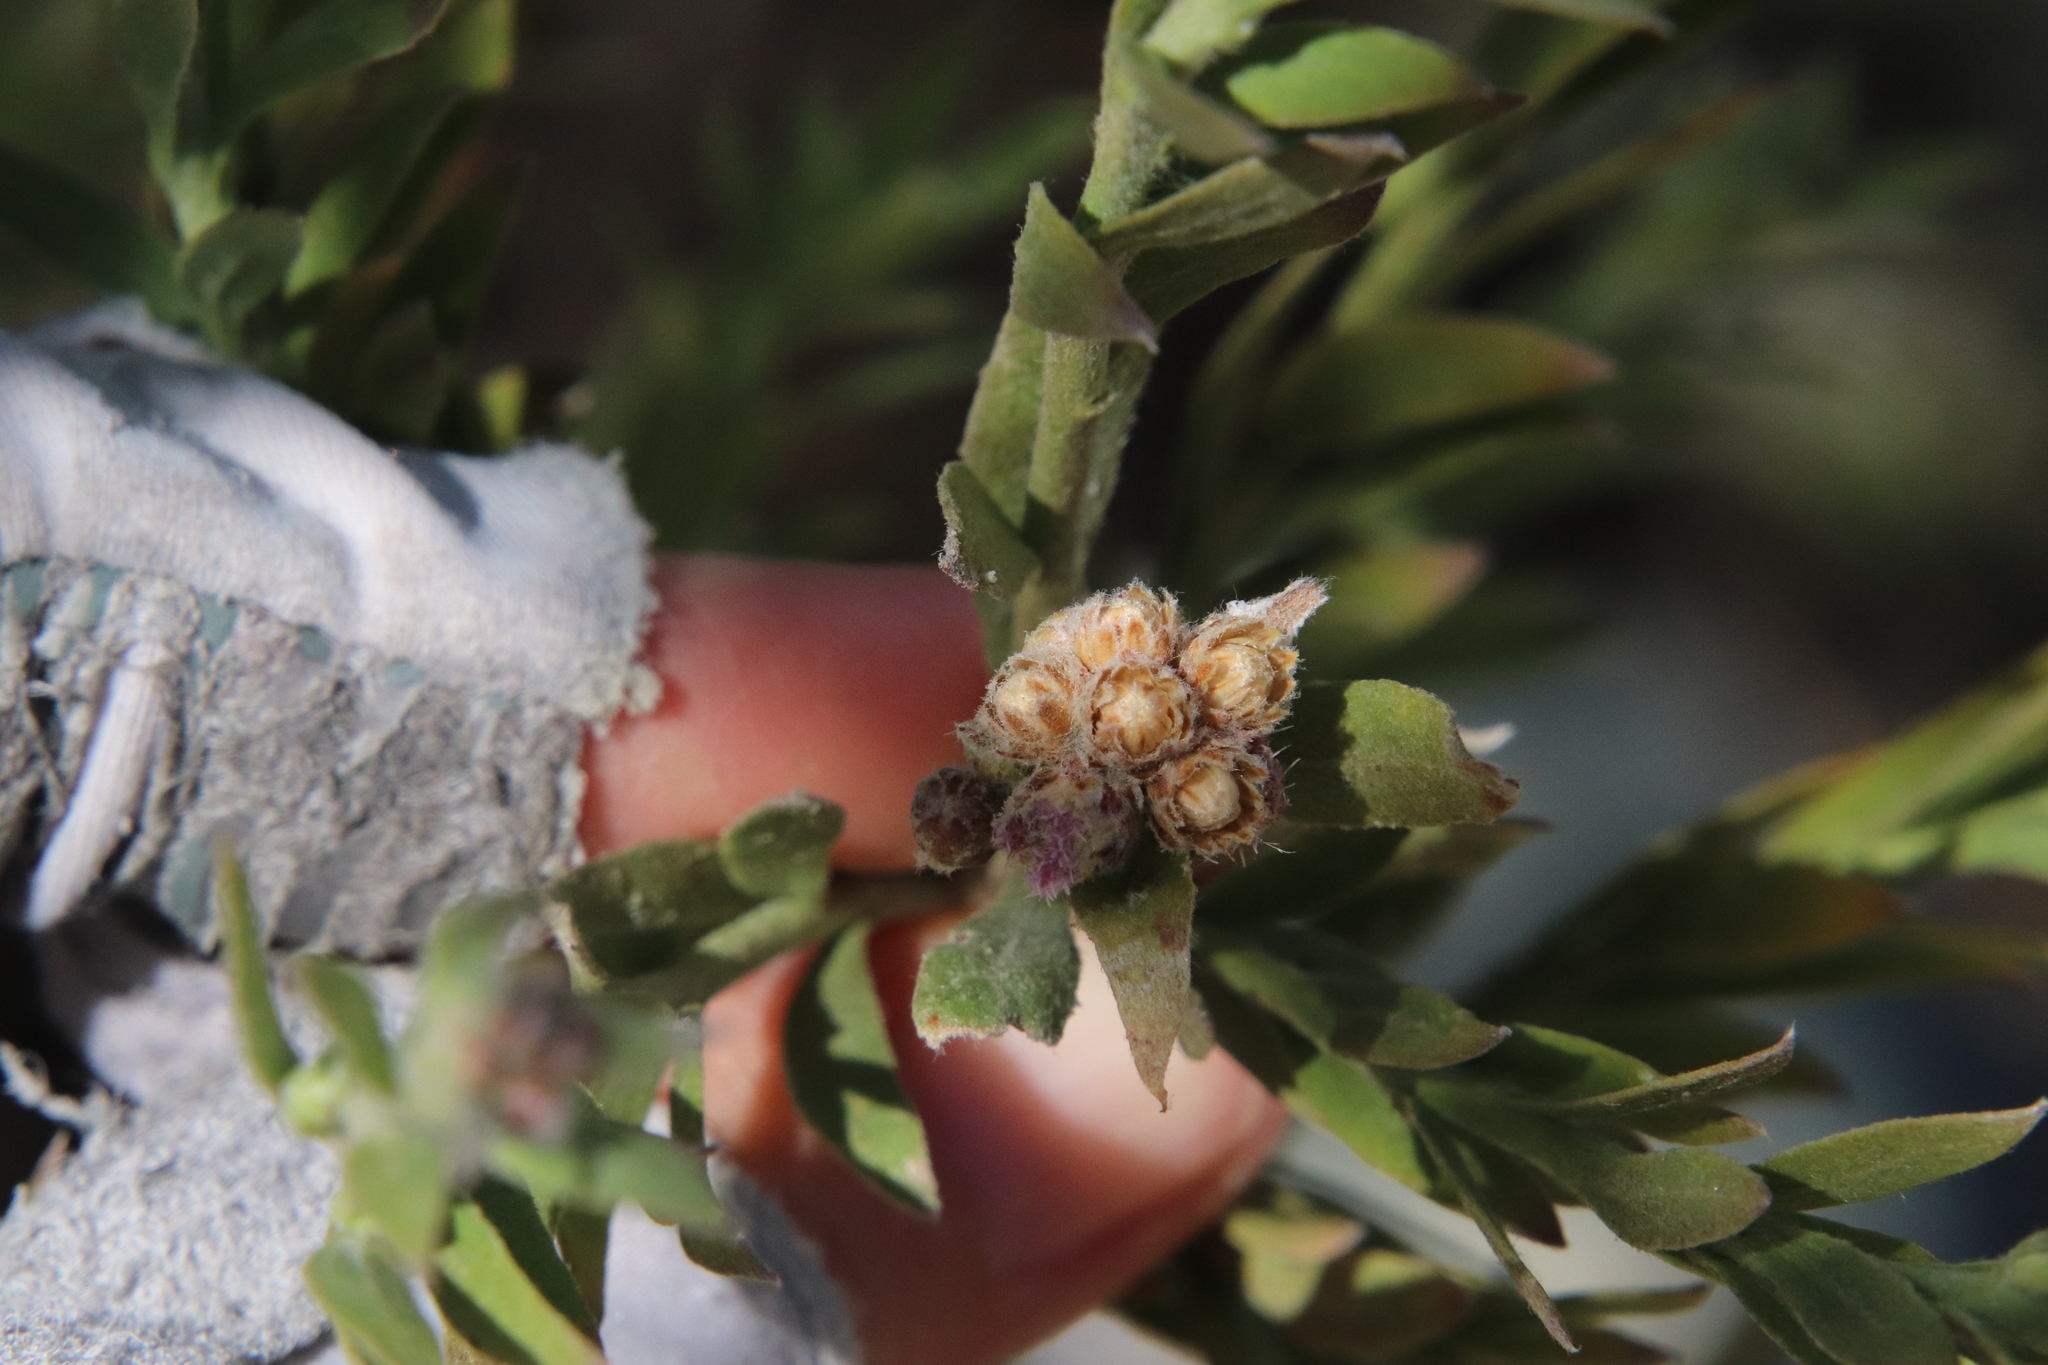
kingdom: Plantae
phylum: Tracheophyta
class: Magnoliopsida
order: Asterales
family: Asteraceae
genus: Pluchea
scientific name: Pluchea sericea
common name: Arrow-weed
